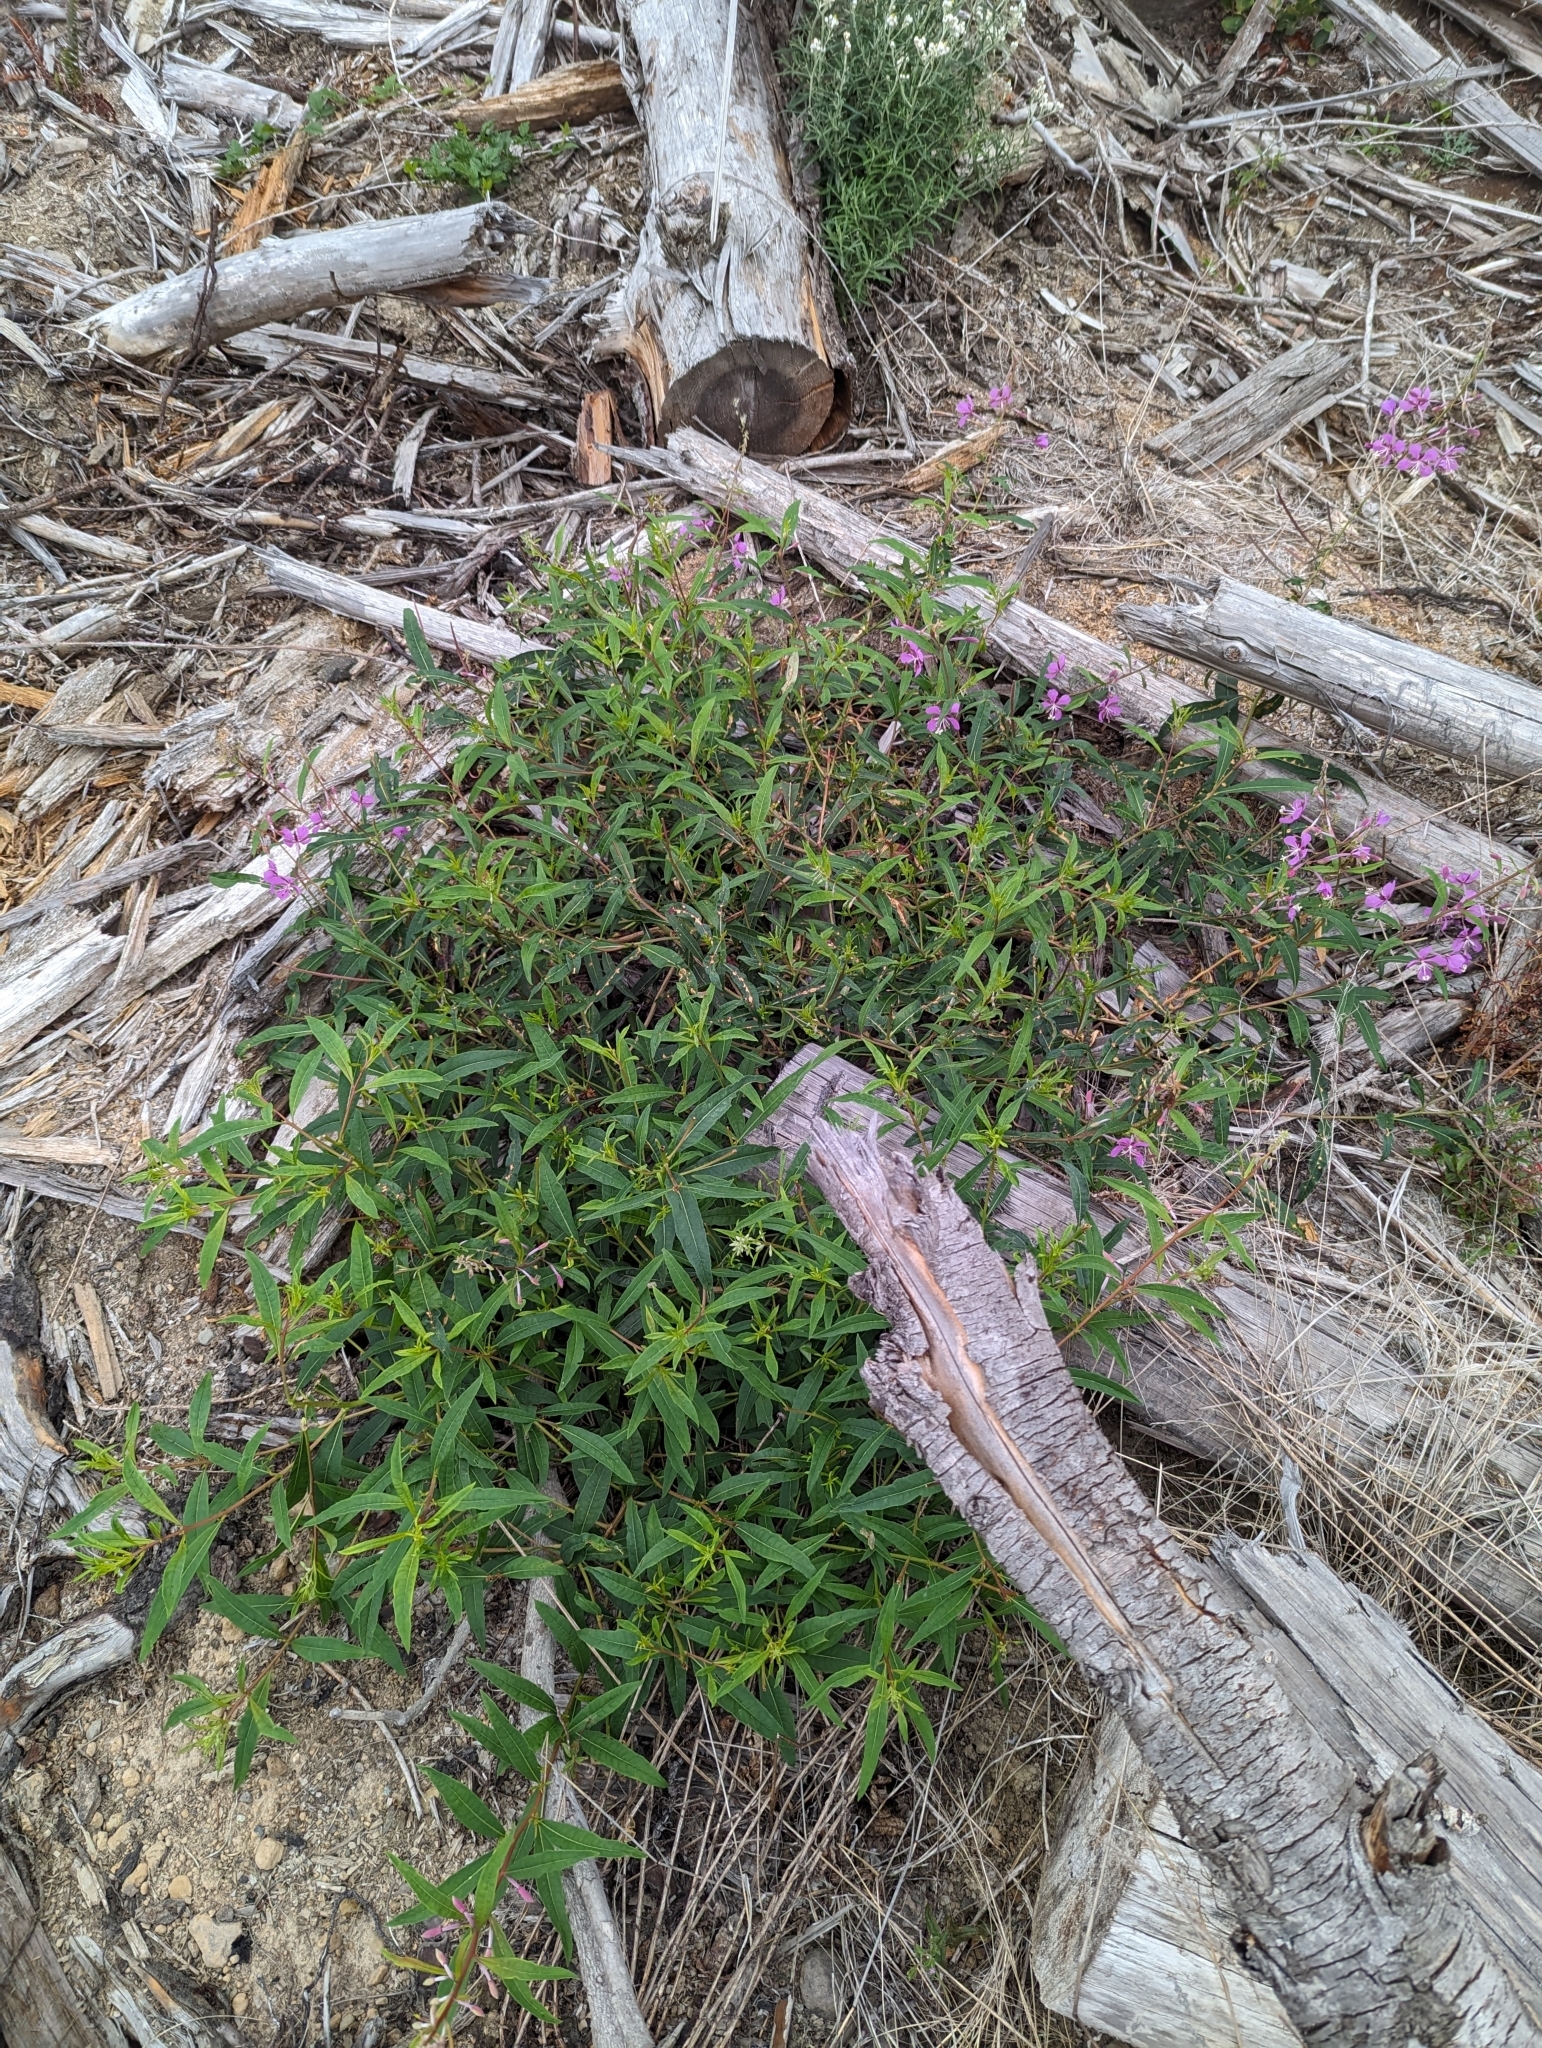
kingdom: Plantae
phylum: Tracheophyta
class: Magnoliopsida
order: Myrtales
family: Onagraceae
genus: Chamaenerion
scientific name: Chamaenerion angustifolium
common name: Fireweed
